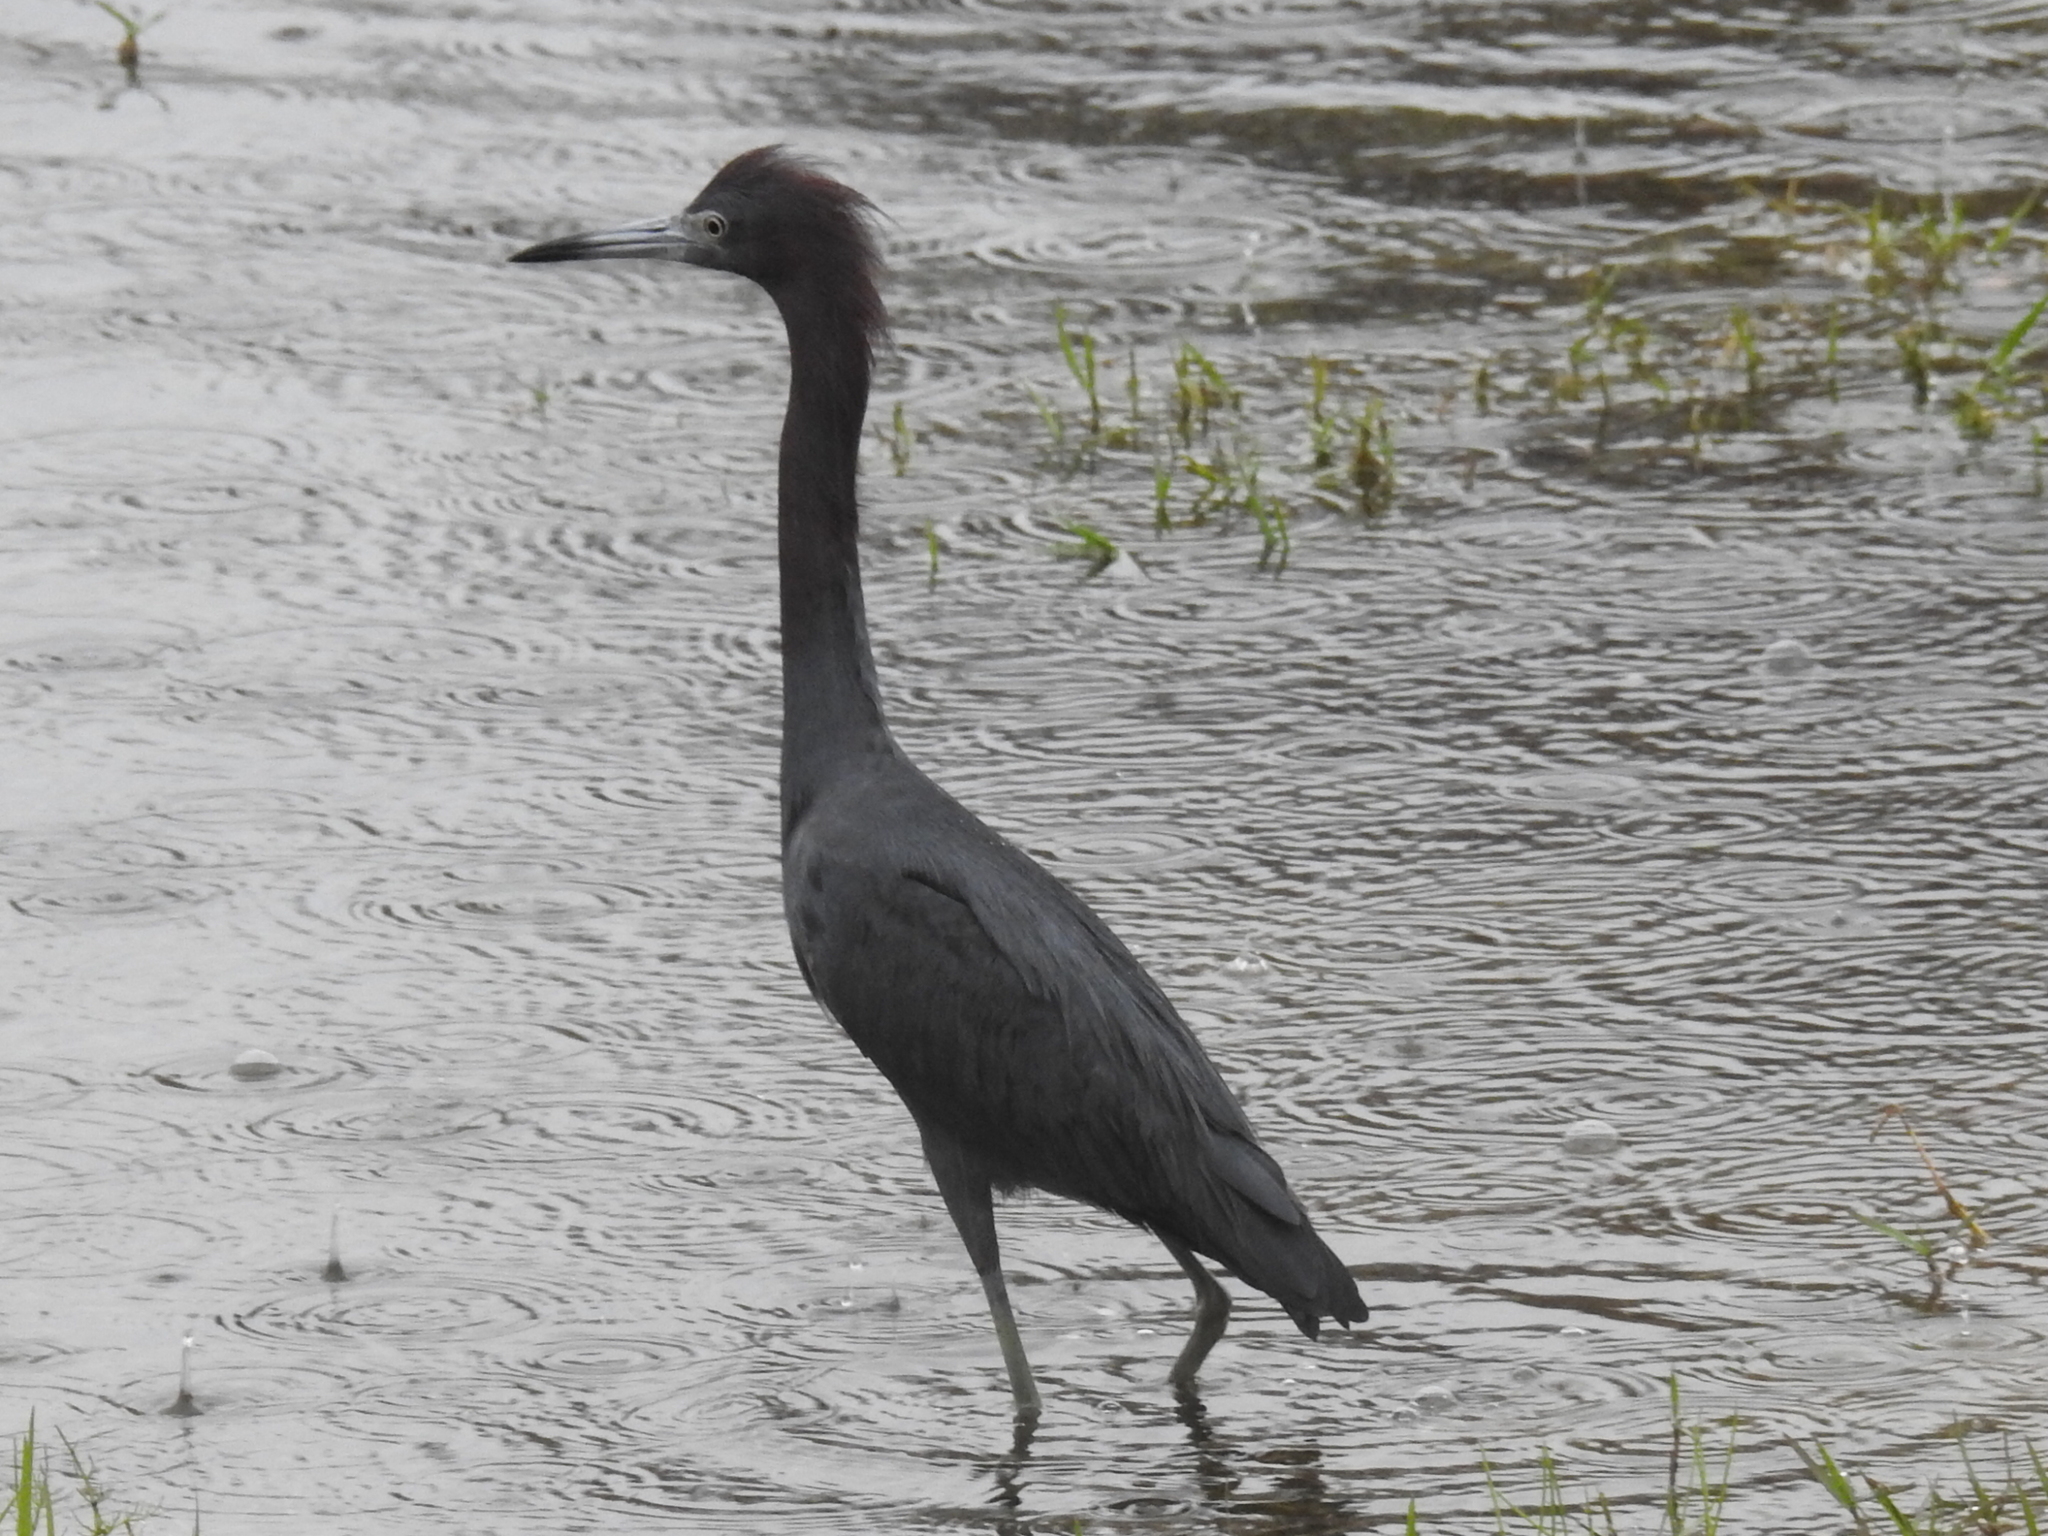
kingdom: Animalia
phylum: Chordata
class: Aves
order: Pelecaniformes
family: Ardeidae
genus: Egretta
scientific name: Egretta caerulea
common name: Little blue heron
